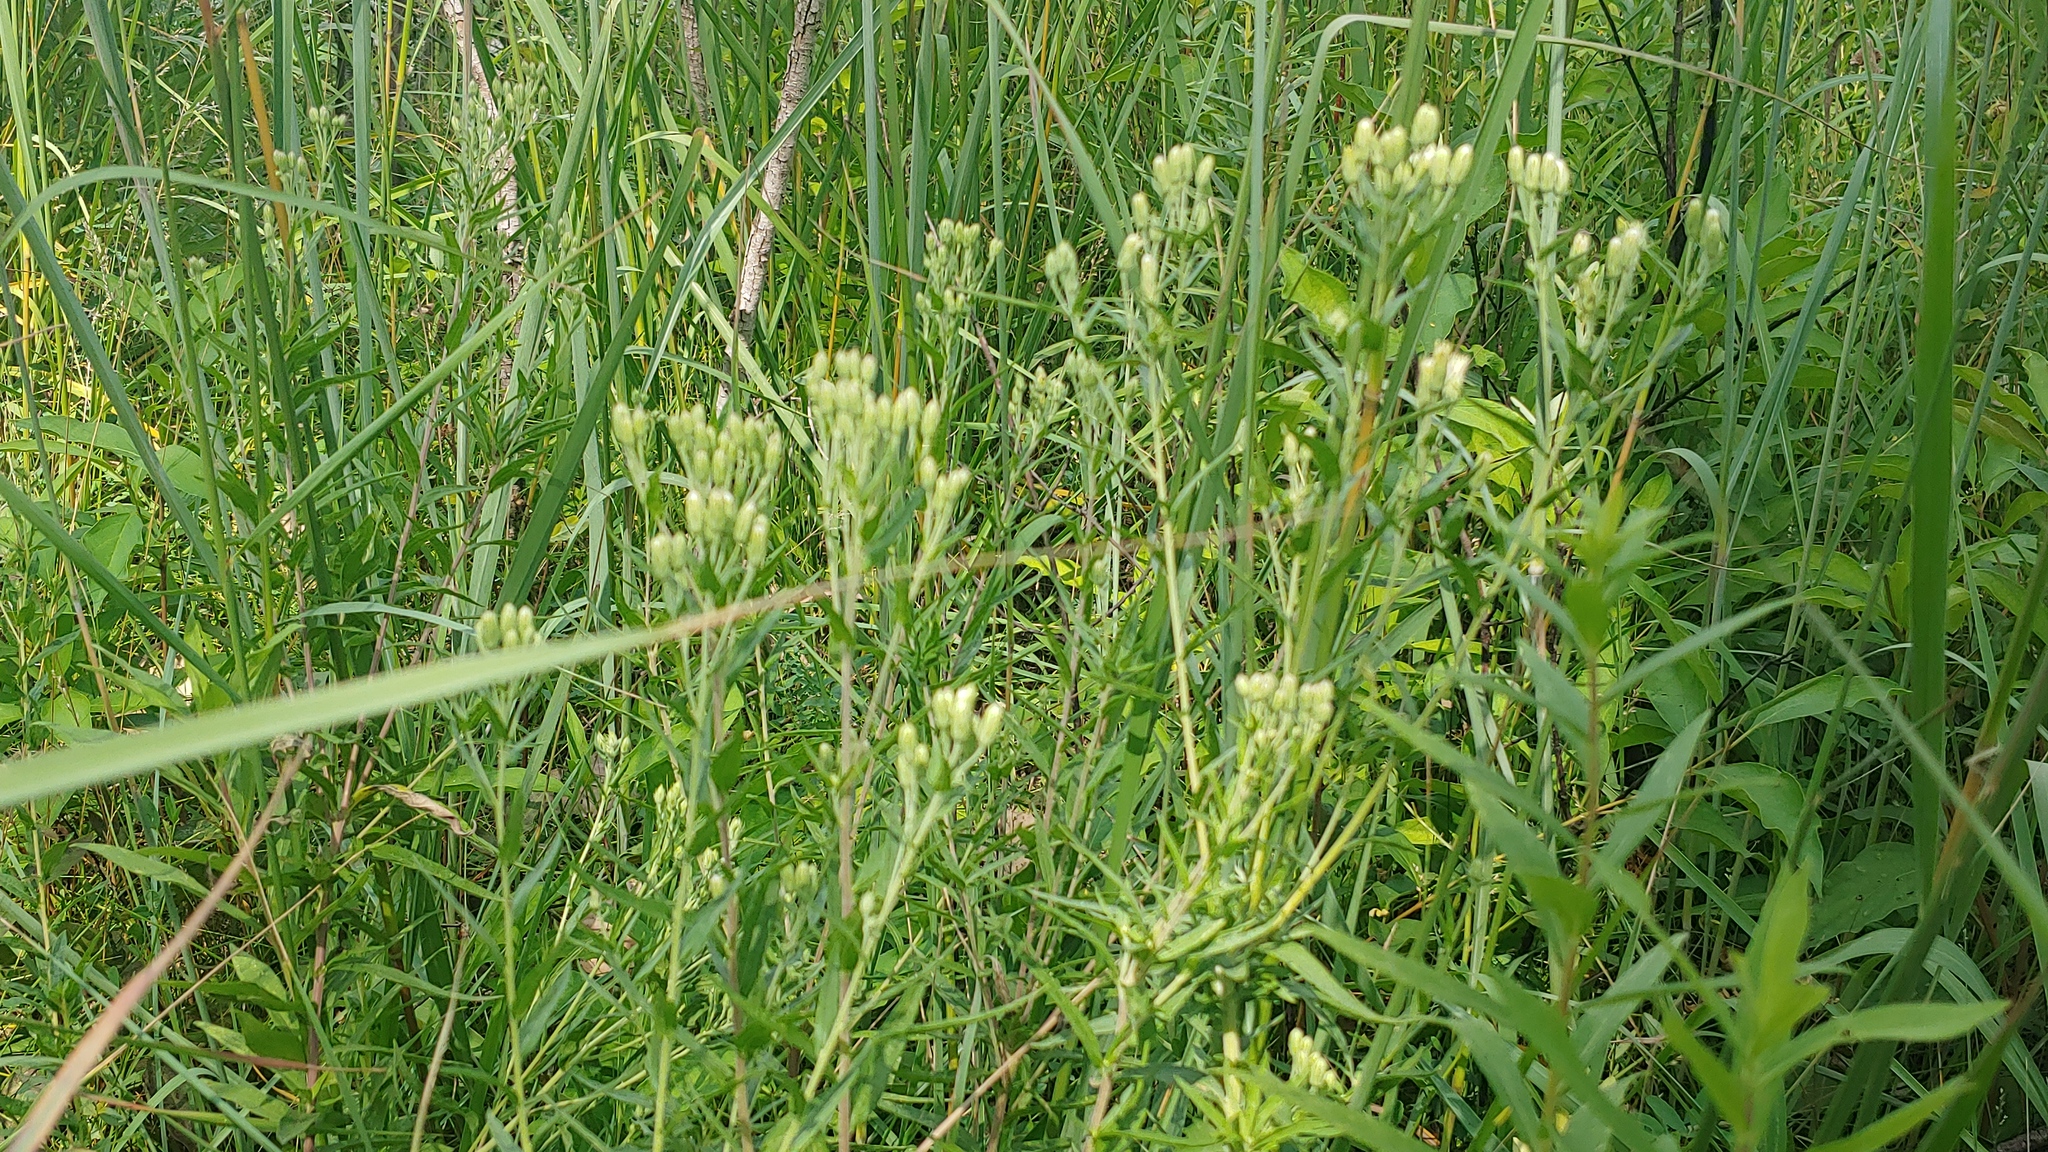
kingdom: Plantae
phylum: Tracheophyta
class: Magnoliopsida
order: Asterales
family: Asteraceae
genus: Brickellia
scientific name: Brickellia eupatorioides
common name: False boneset
